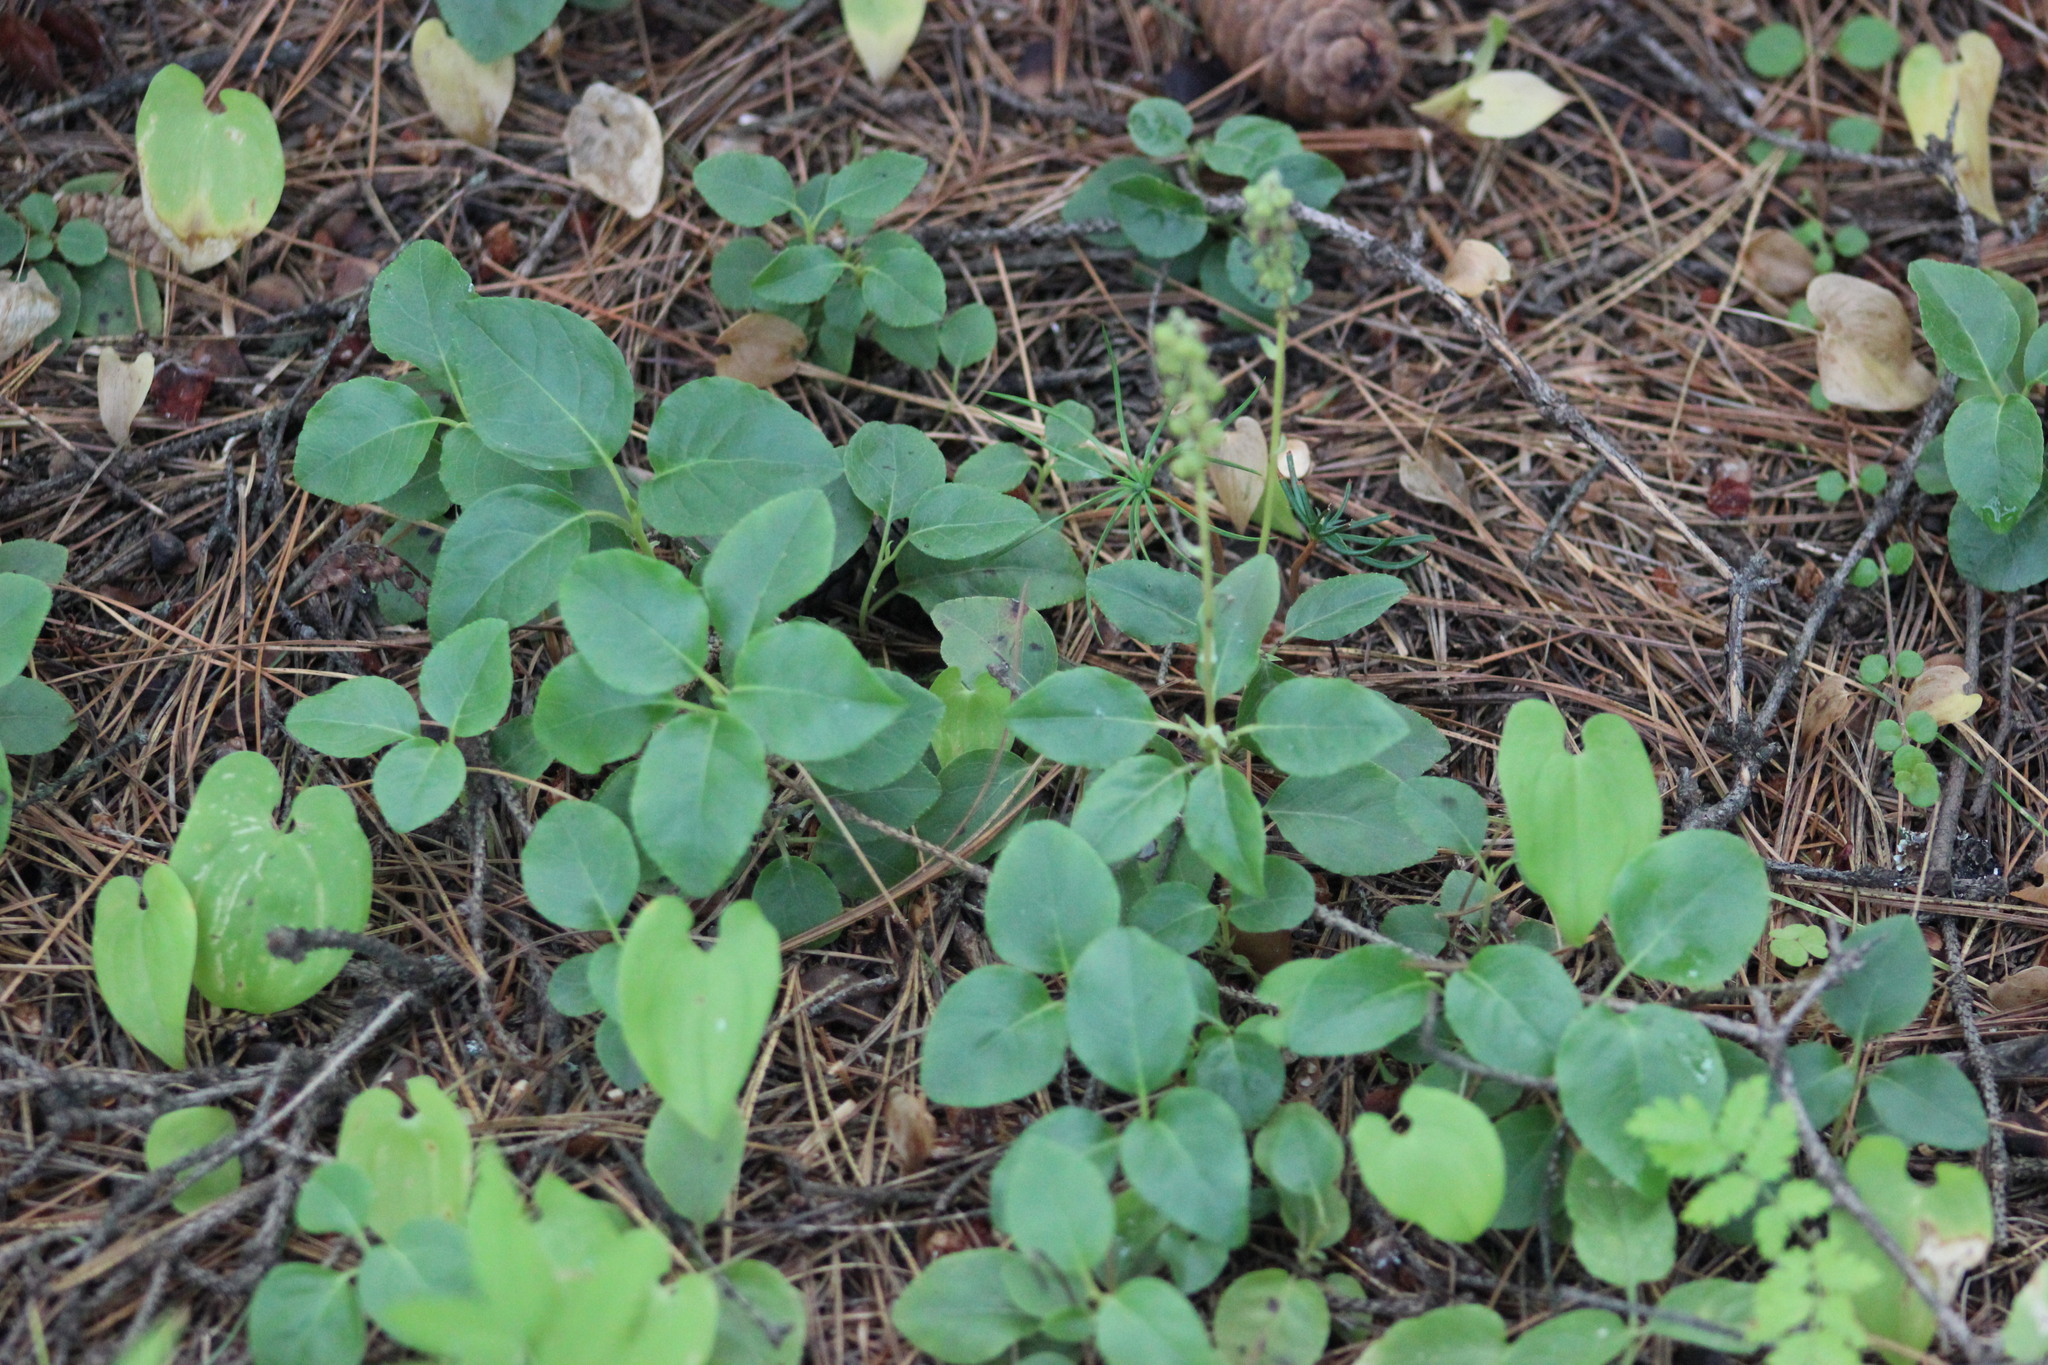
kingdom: Plantae
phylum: Tracheophyta
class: Magnoliopsida
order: Ericales
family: Ericaceae
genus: Orthilia
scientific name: Orthilia secunda
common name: One-sided orthilia
